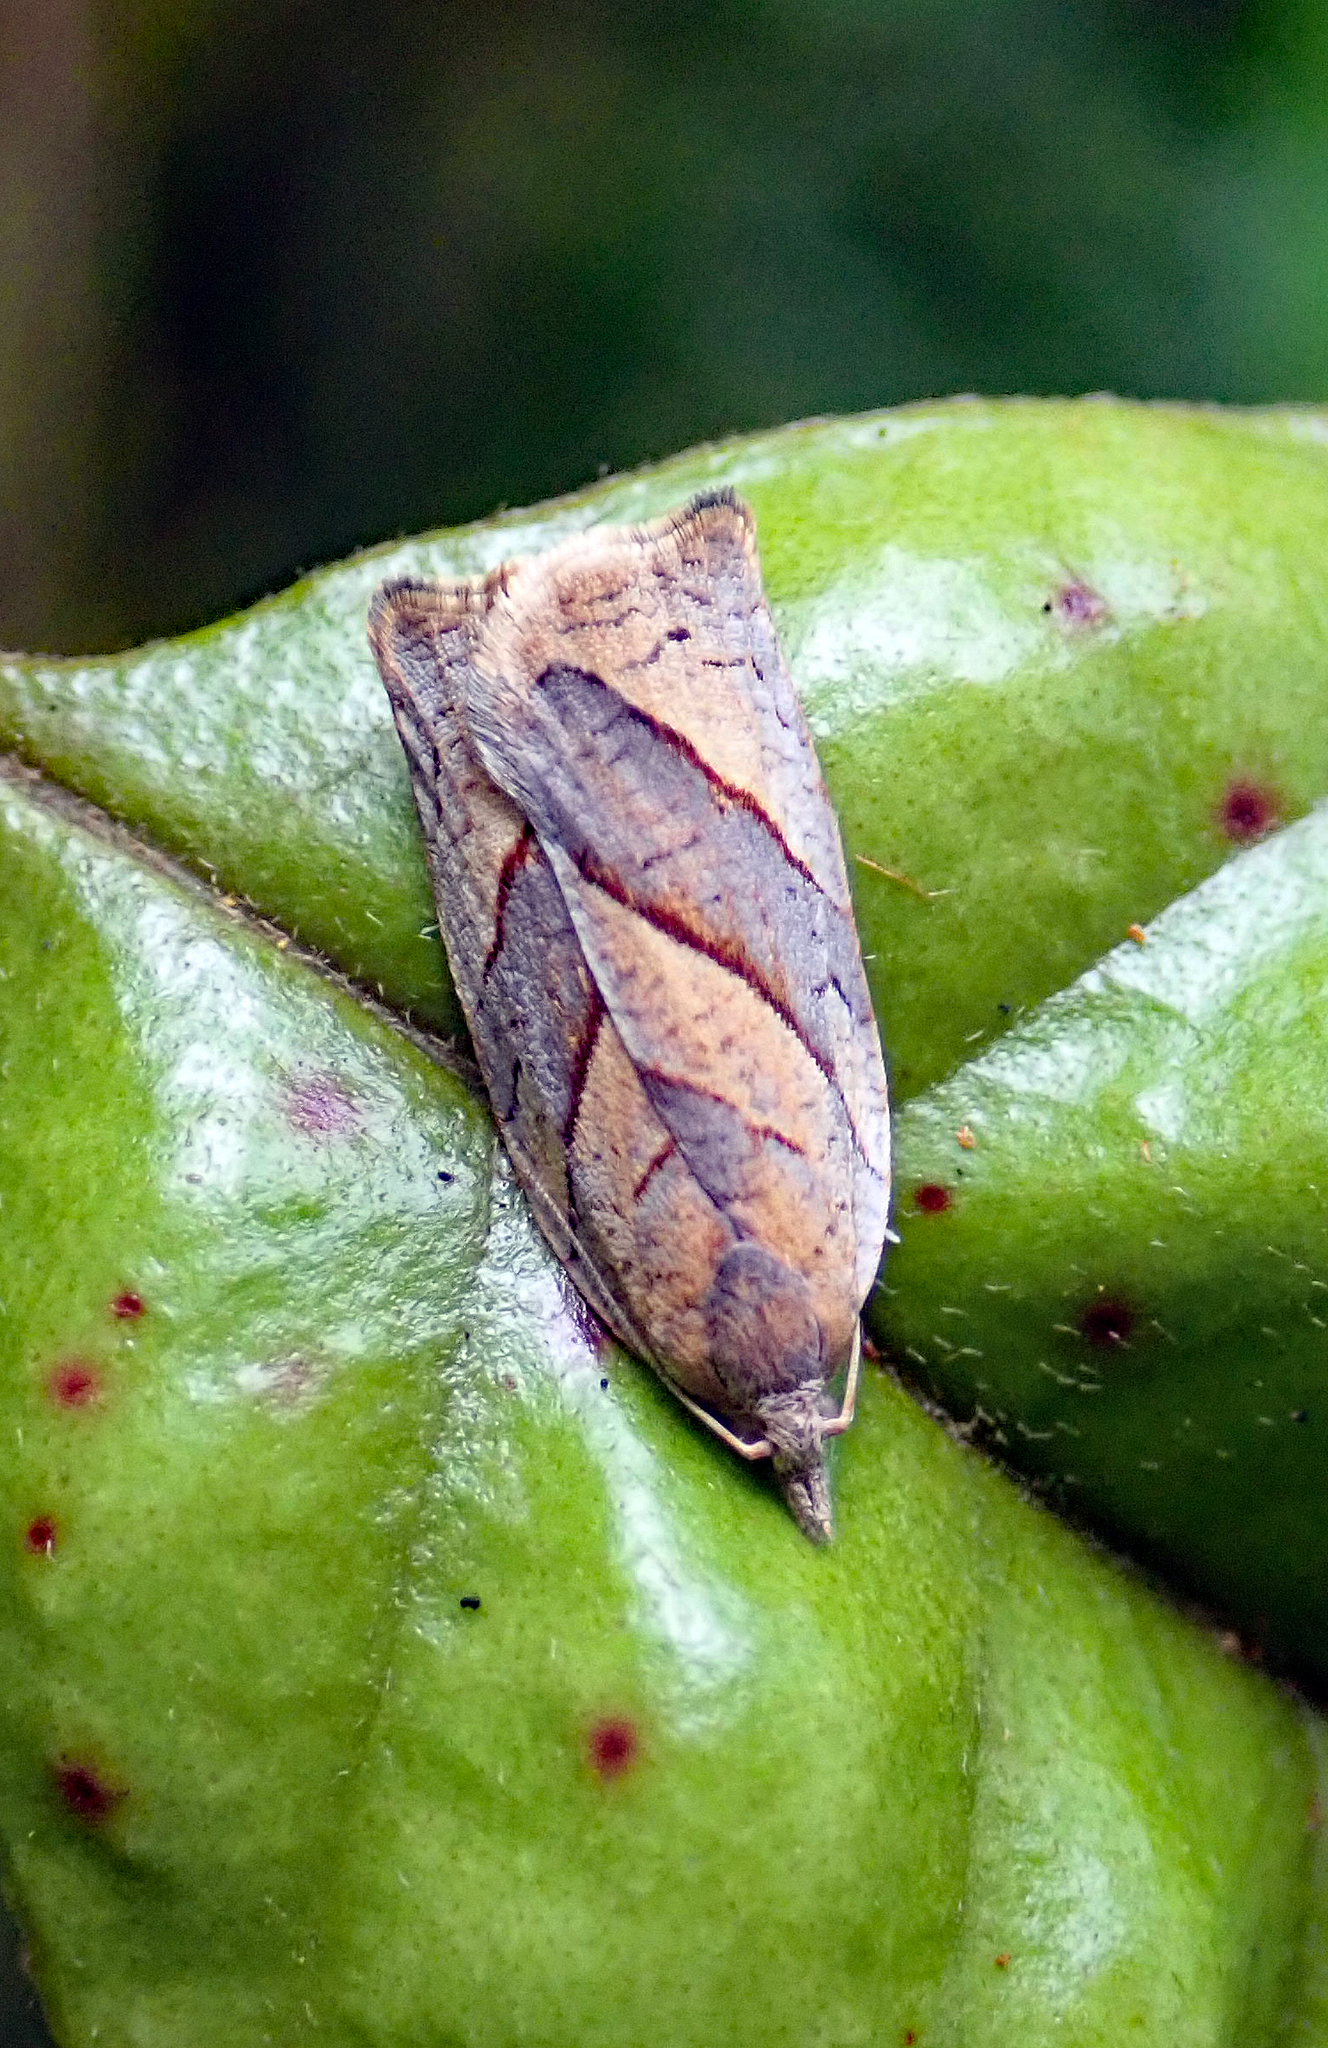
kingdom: Animalia
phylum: Arthropoda
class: Insecta
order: Lepidoptera
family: Tortricidae
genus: Apoctena
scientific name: Apoctena orthocopa
